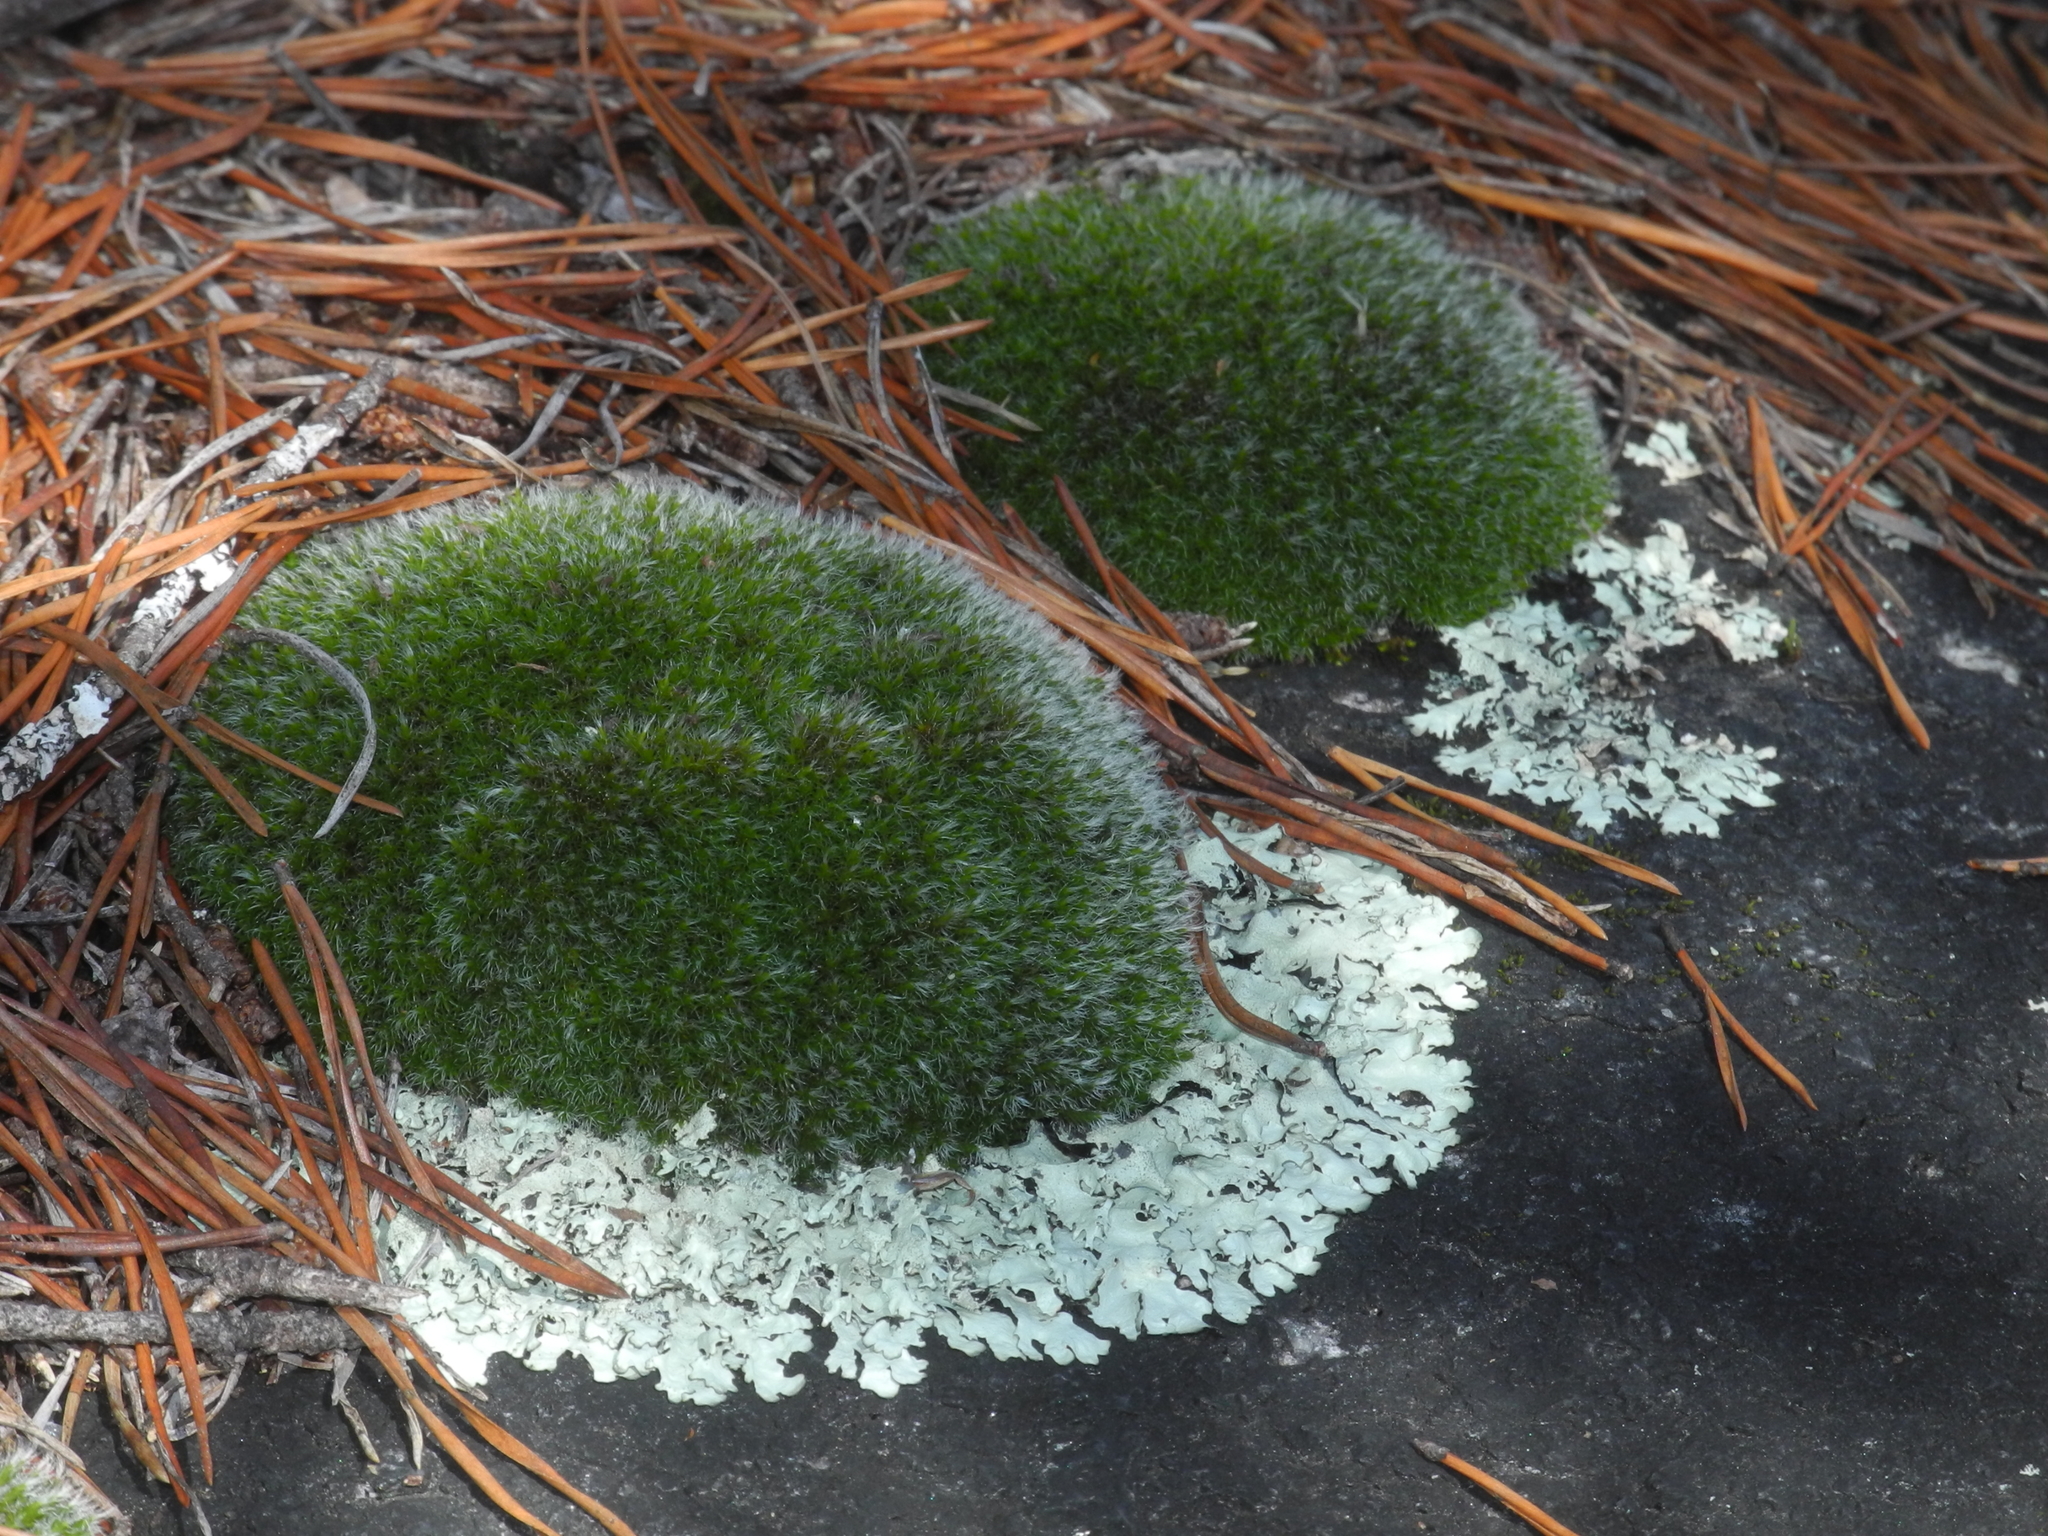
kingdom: Plantae
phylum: Bryophyta
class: Bryopsida
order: Grimmiales
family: Grimmiaceae
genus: Grimmia
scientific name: Grimmia pulvinata
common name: Grey-cushioned grimmia
